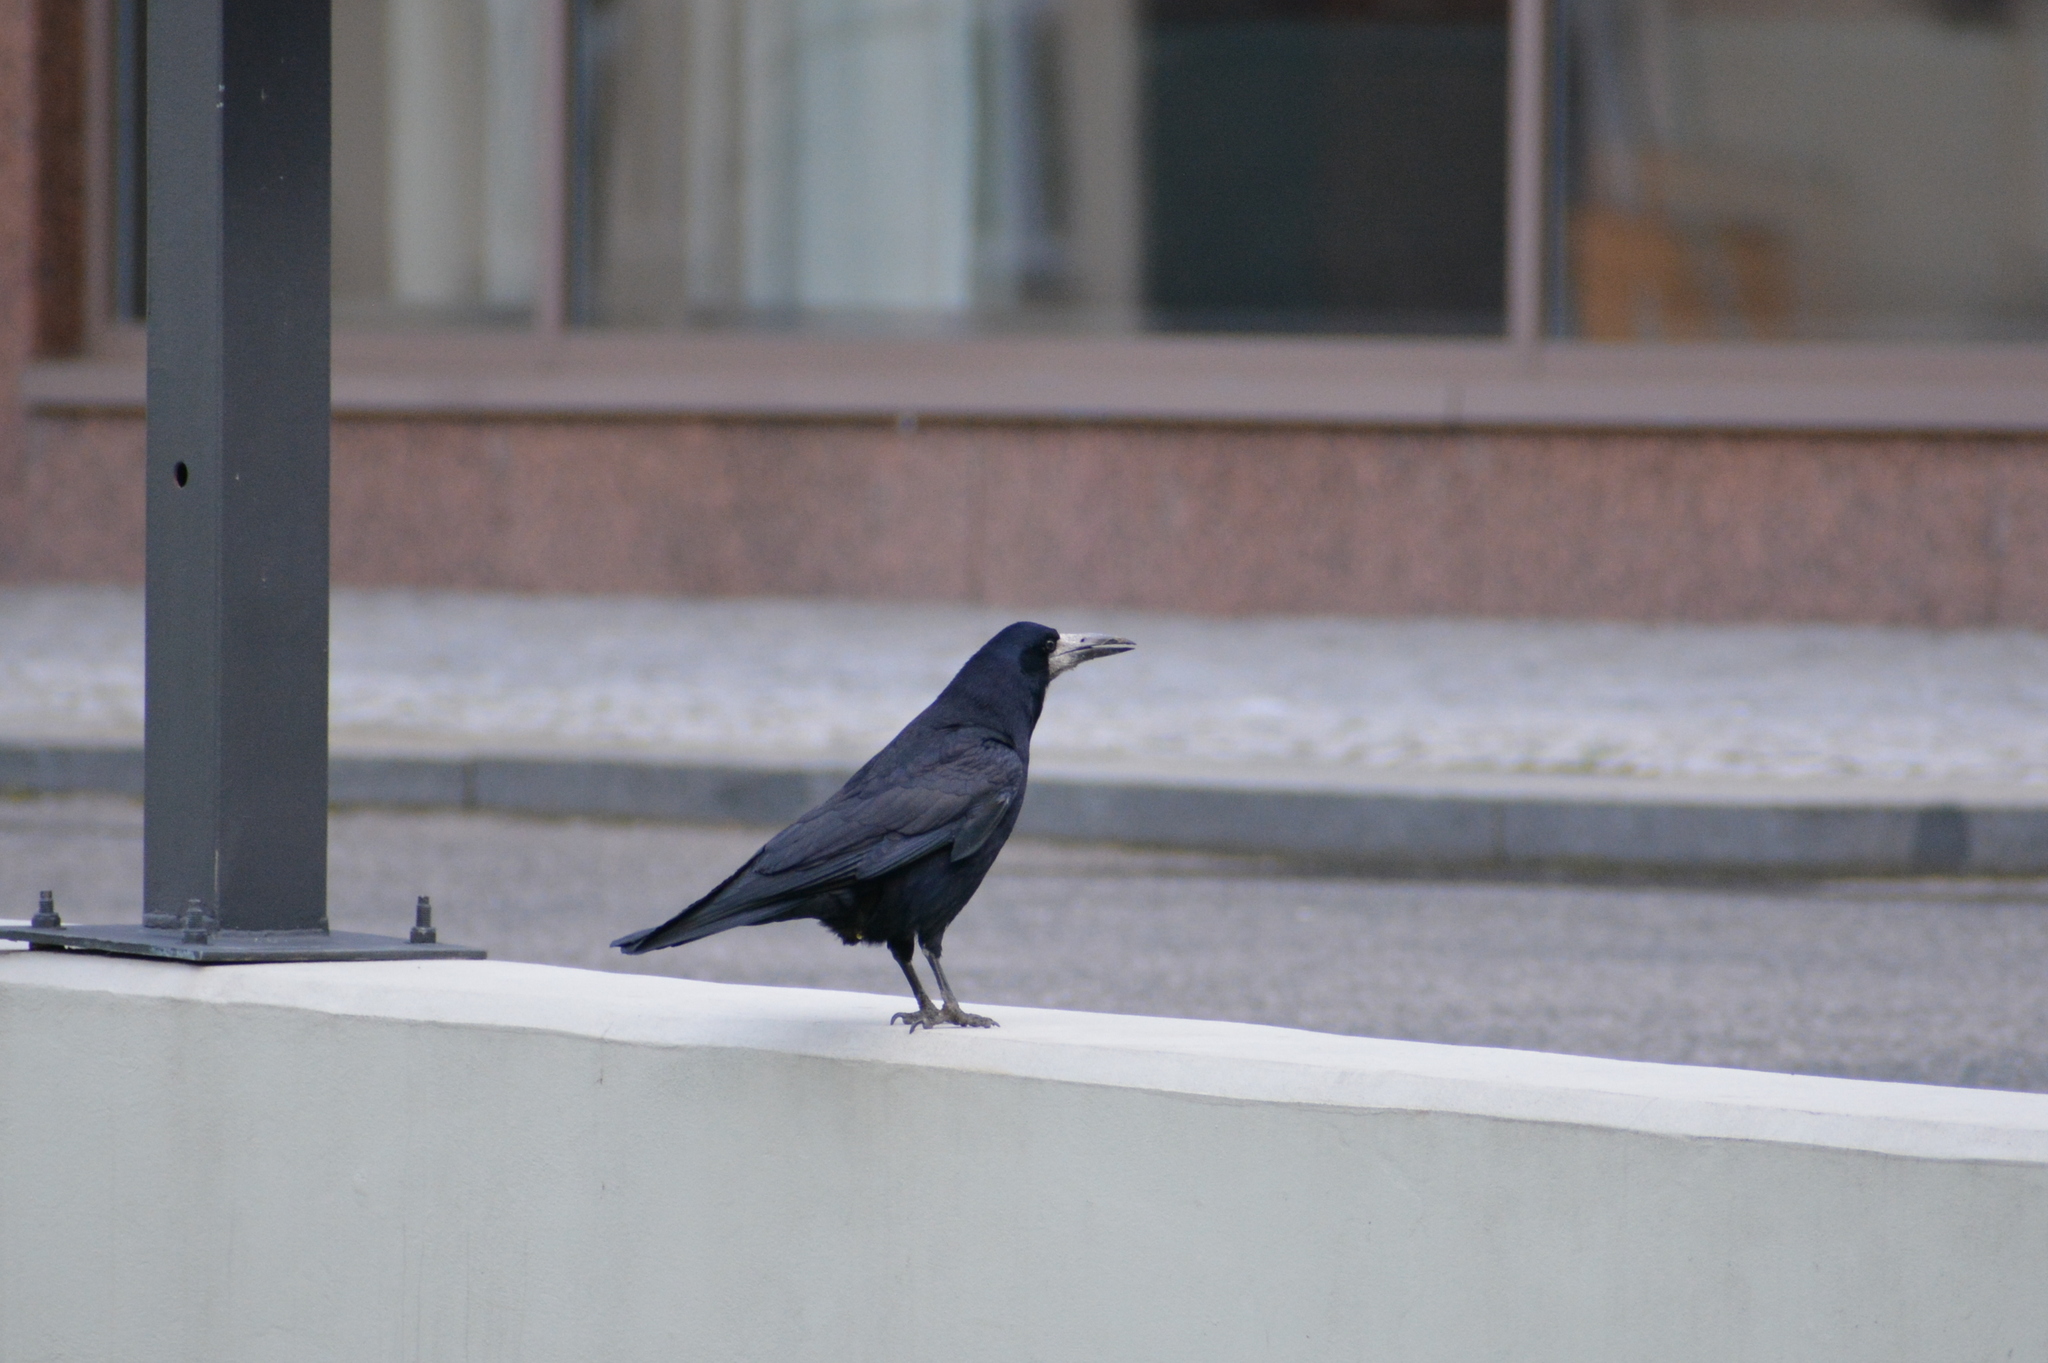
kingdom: Animalia
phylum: Chordata
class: Aves
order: Passeriformes
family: Corvidae
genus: Corvus
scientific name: Corvus frugilegus
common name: Rook
